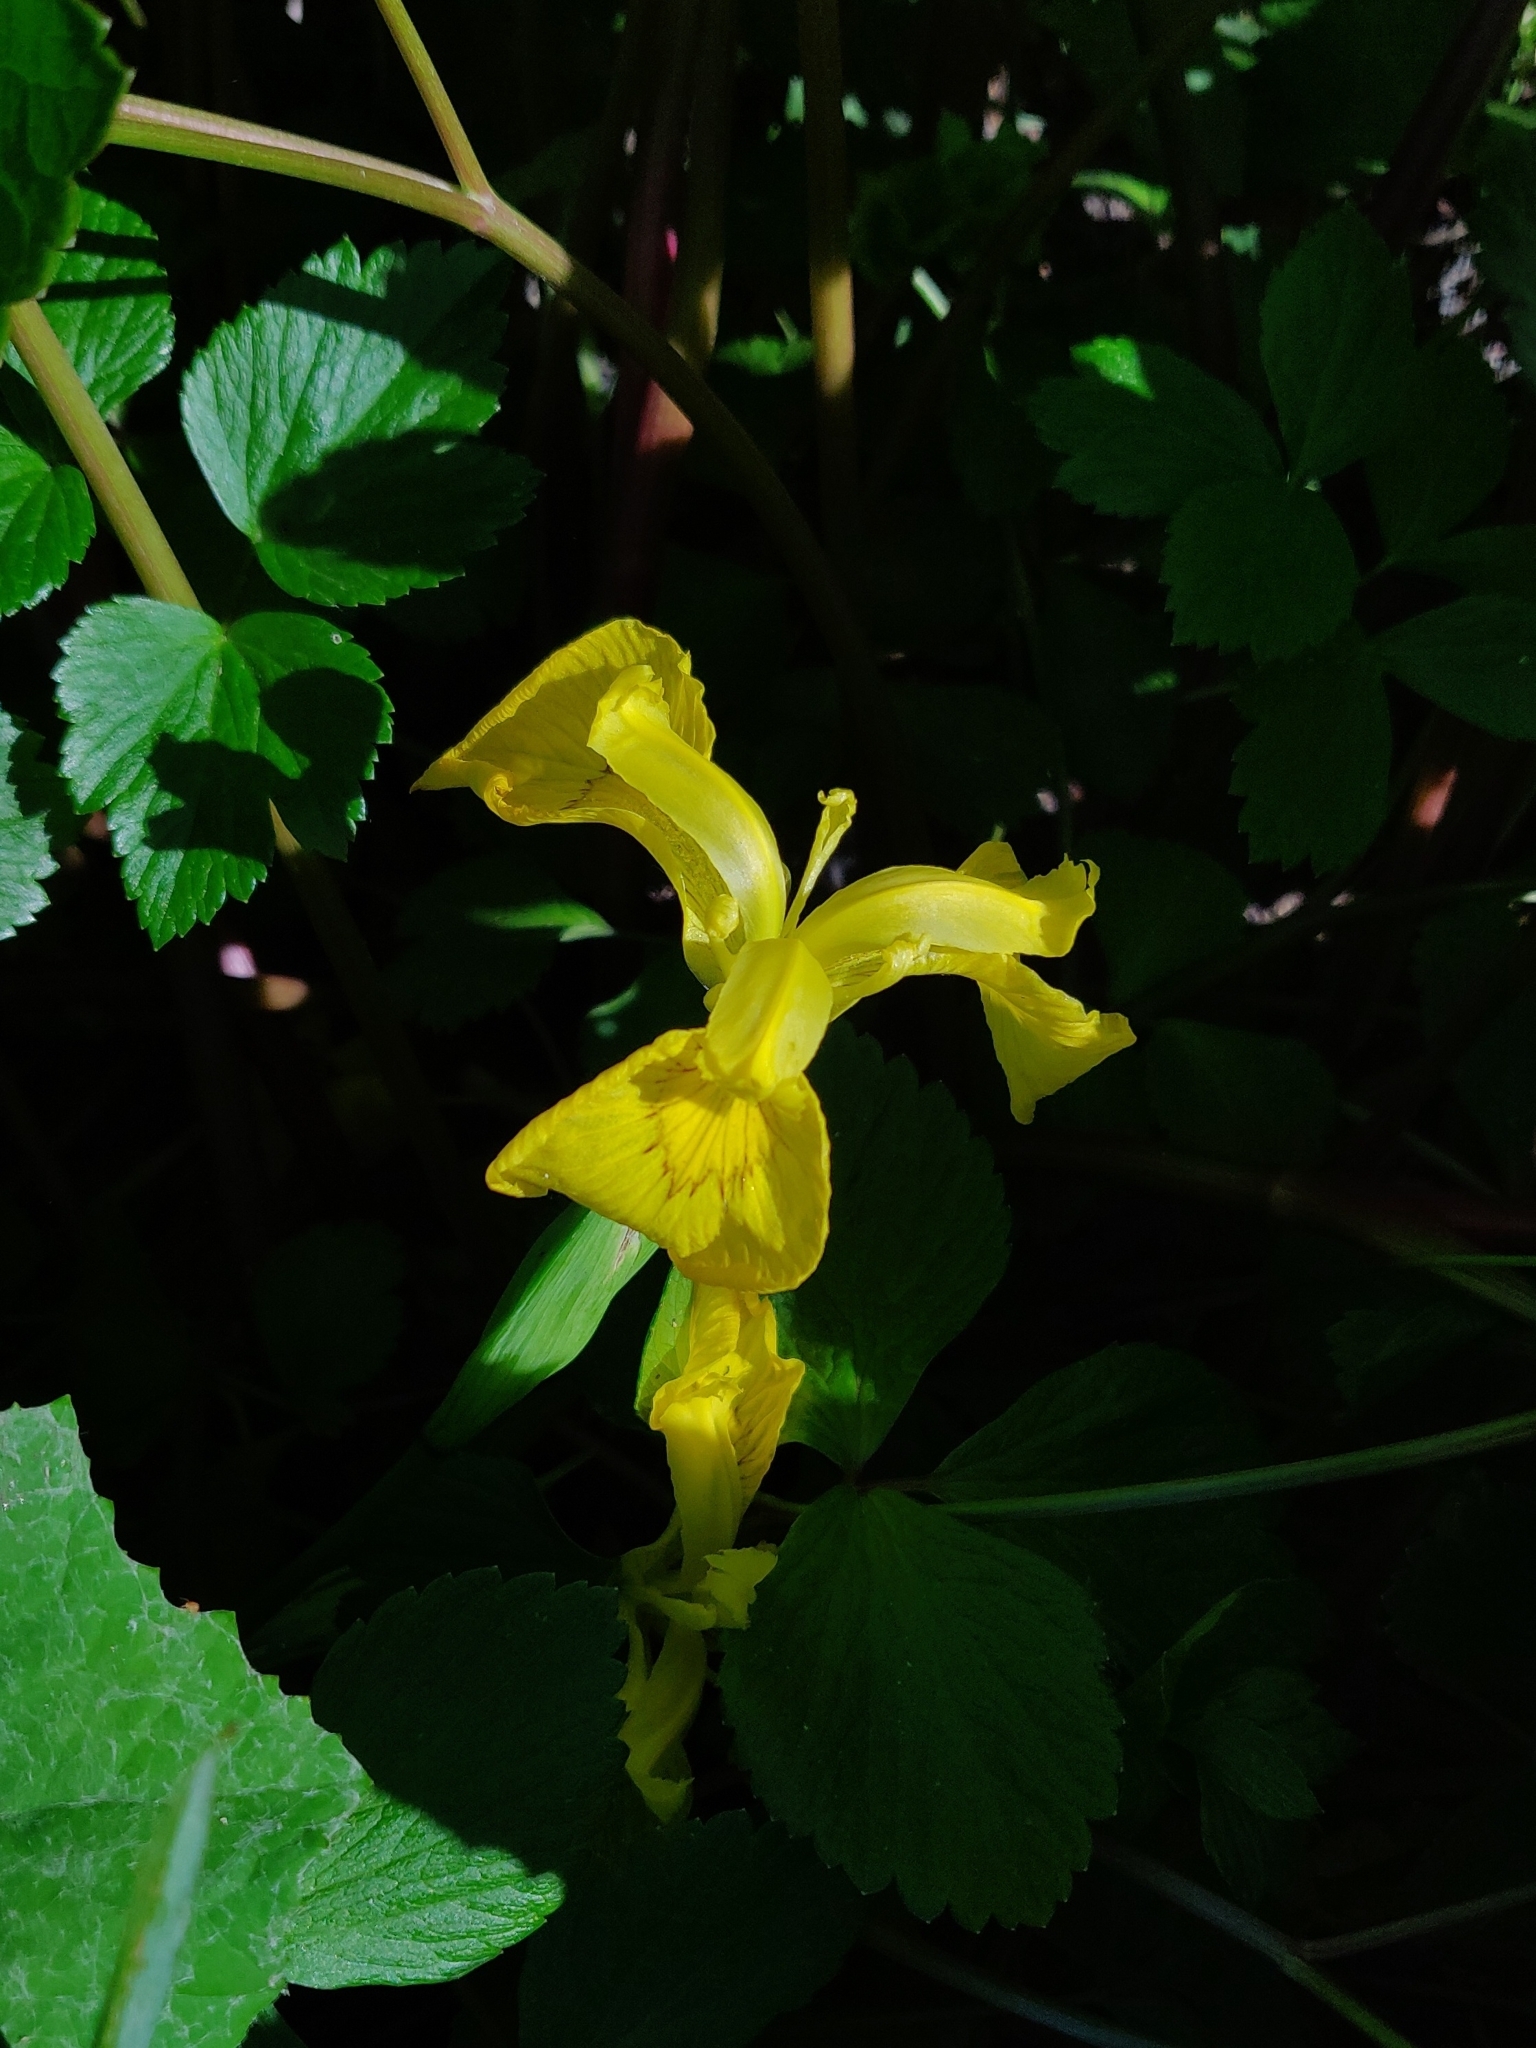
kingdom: Plantae
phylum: Tracheophyta
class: Liliopsida
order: Asparagales
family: Iridaceae
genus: Iris
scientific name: Iris pseudacorus
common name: Yellow flag
